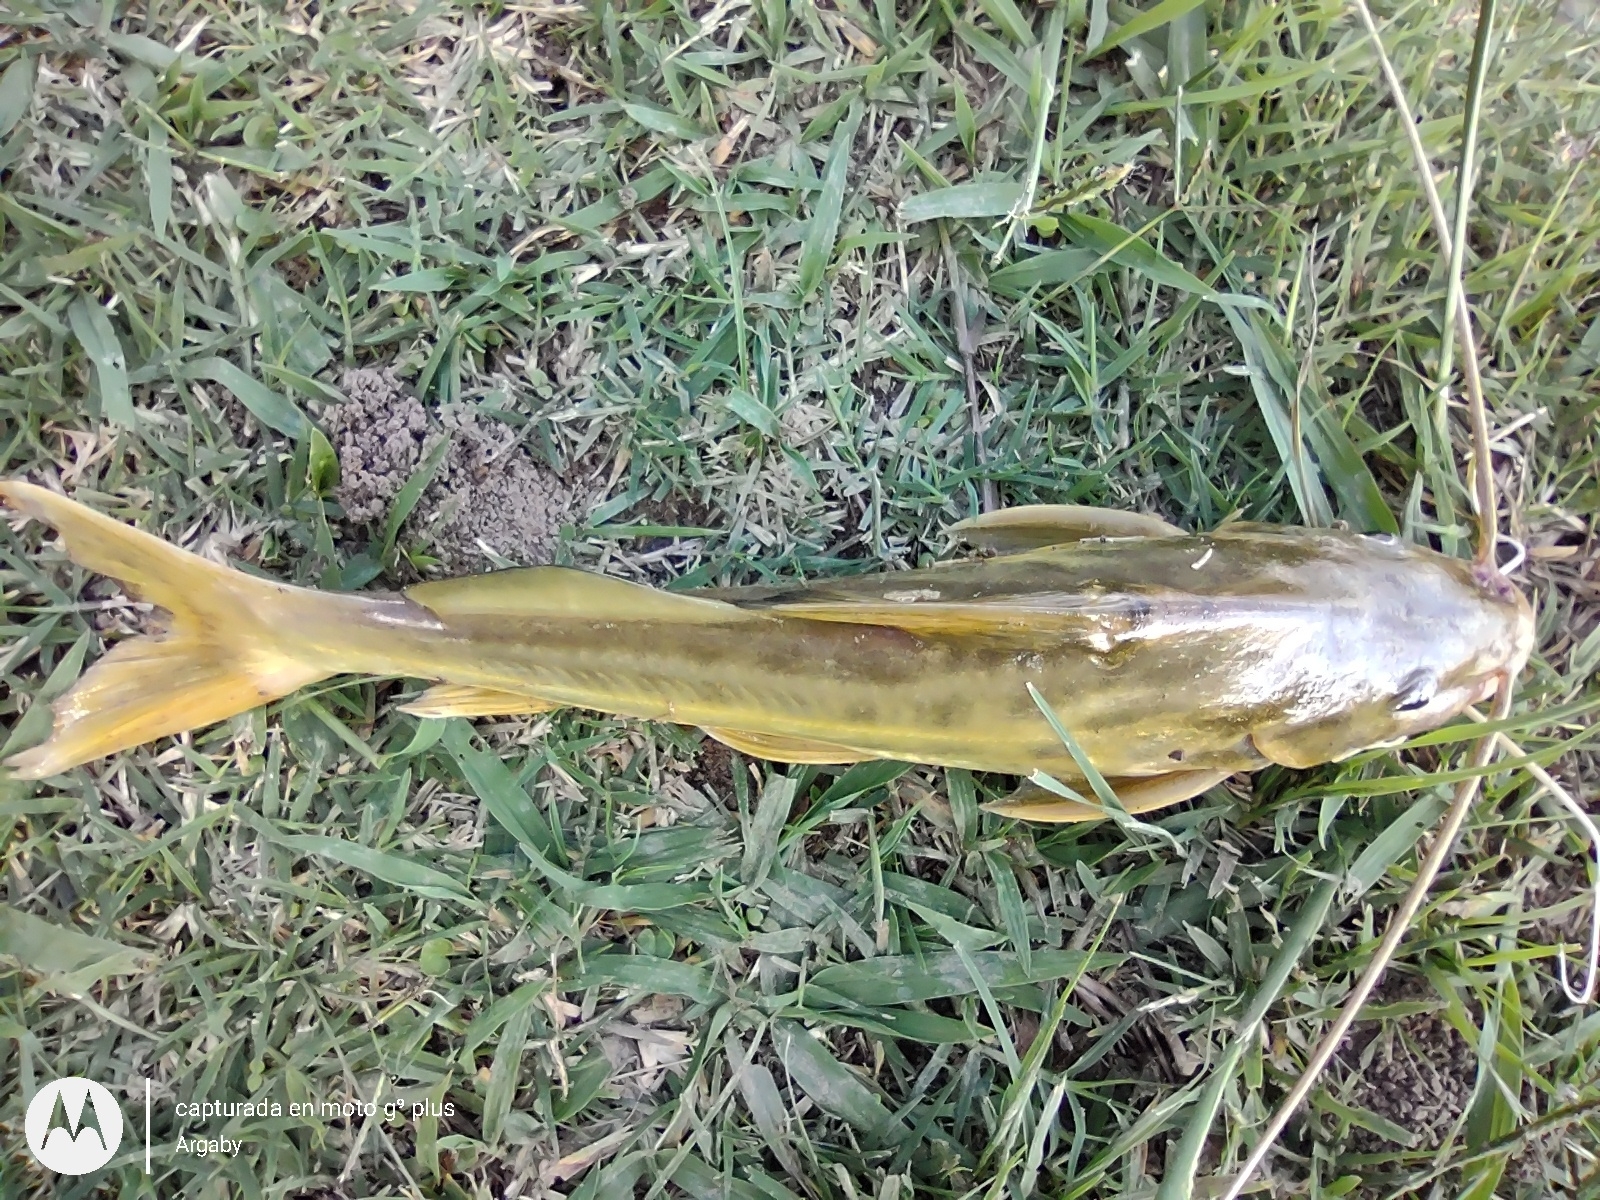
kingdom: Animalia
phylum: Chordata
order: Siluriformes
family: Pimelodidae
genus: Pimelodus
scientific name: Pimelodus maculatus
